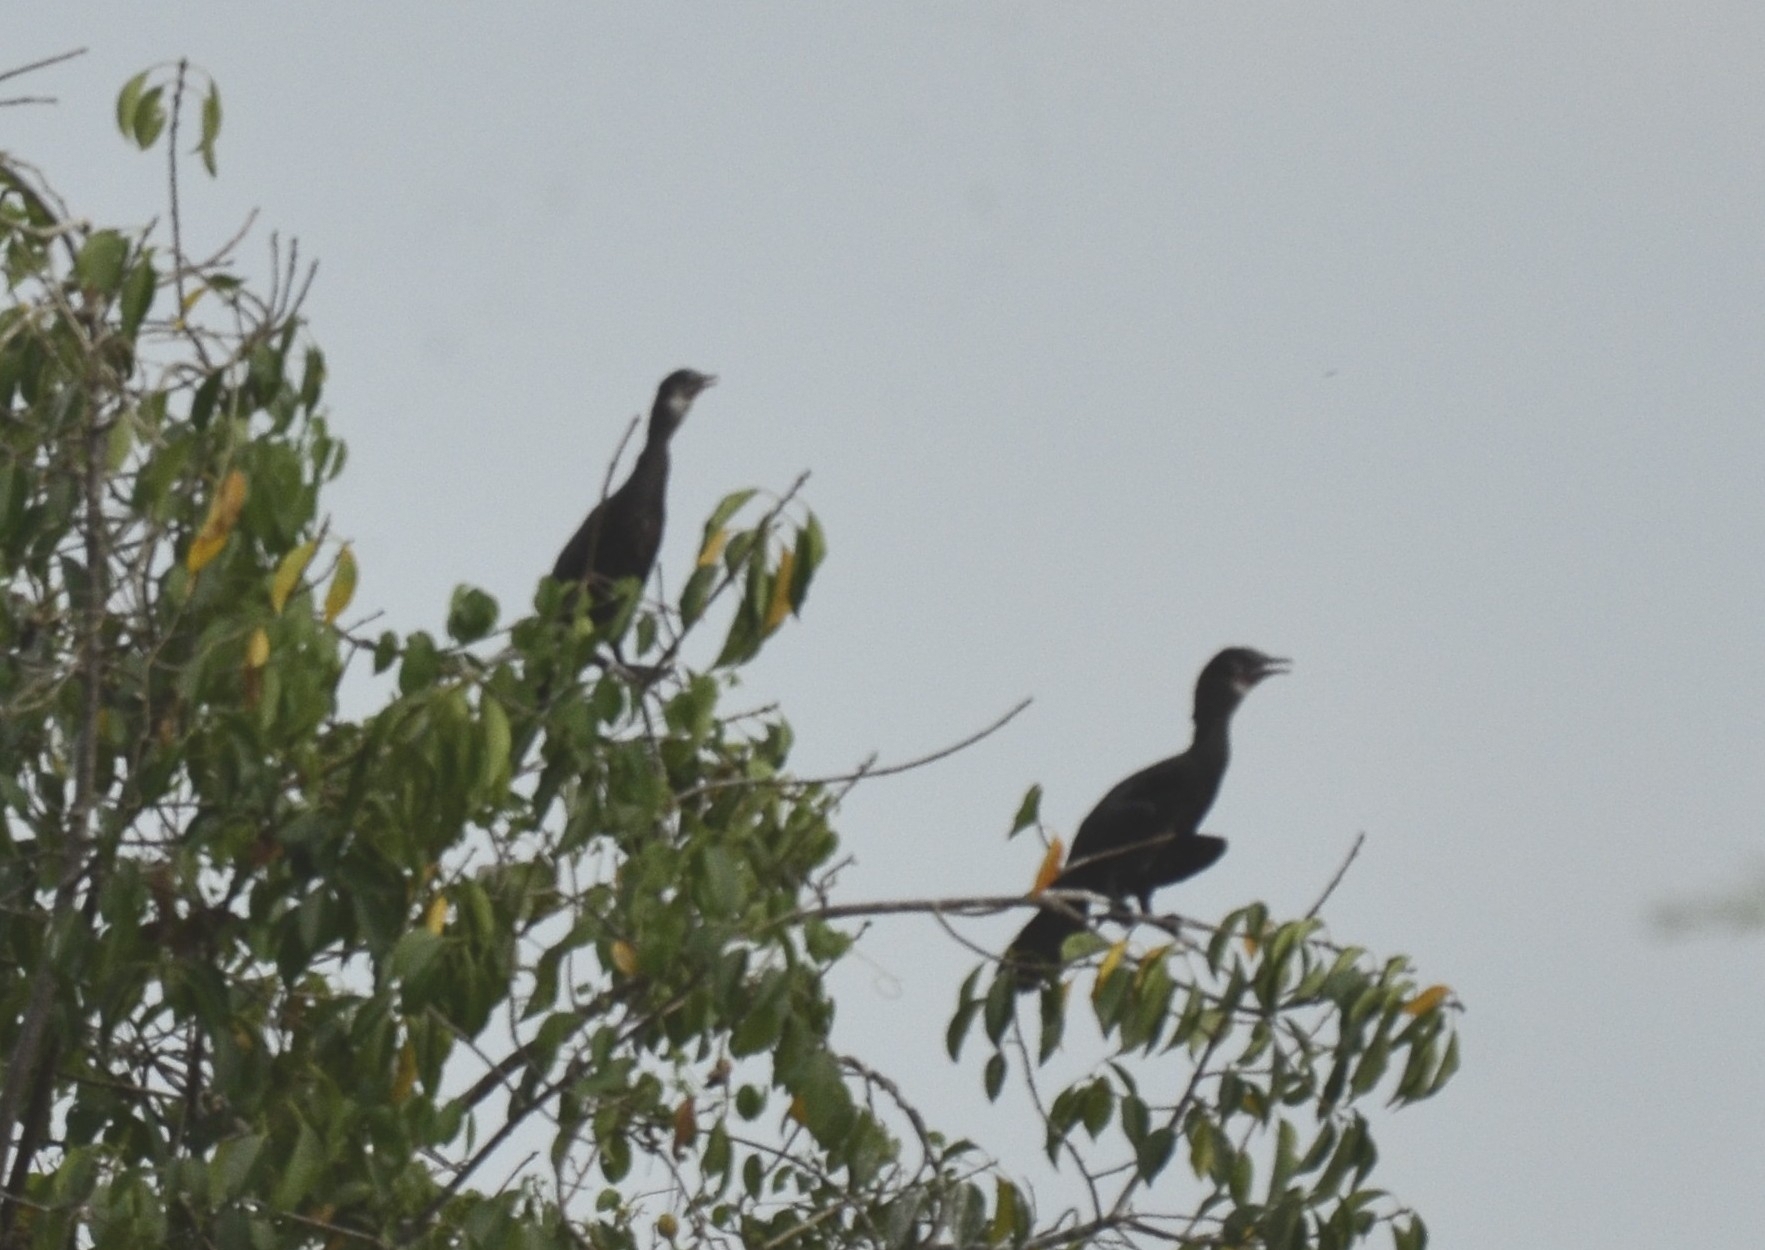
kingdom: Animalia
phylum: Chordata
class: Aves
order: Suliformes
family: Phalacrocoracidae
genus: Phalacrocorax
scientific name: Phalacrocorax fuscicollis
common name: Indian cormorant
